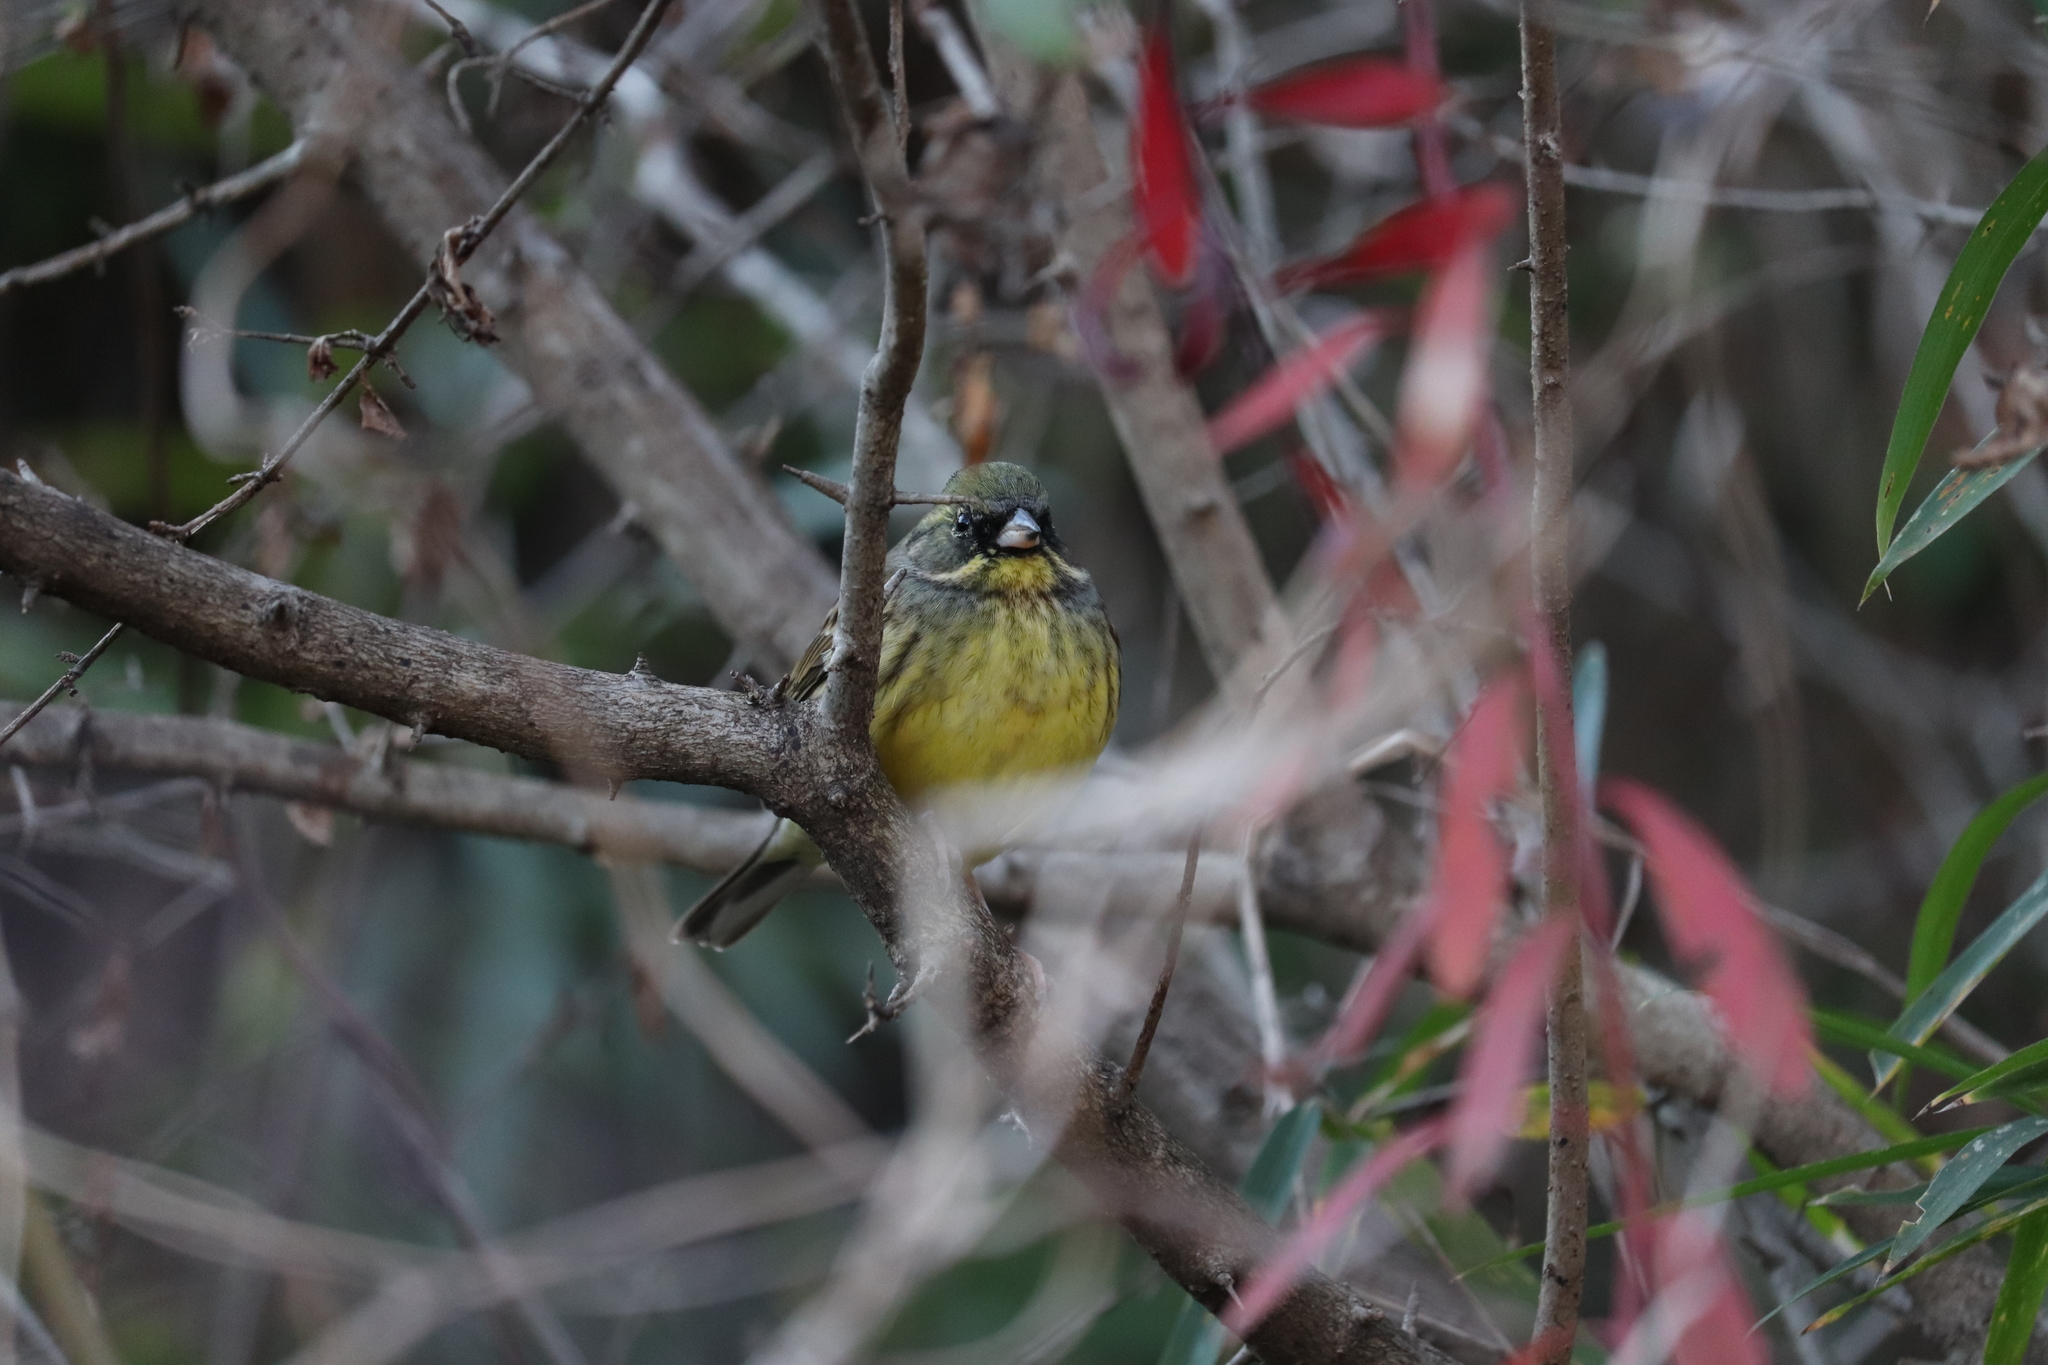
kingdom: Animalia
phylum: Chordata
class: Aves
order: Passeriformes
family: Emberizidae
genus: Emberiza
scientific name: Emberiza personata
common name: Masked bunting
